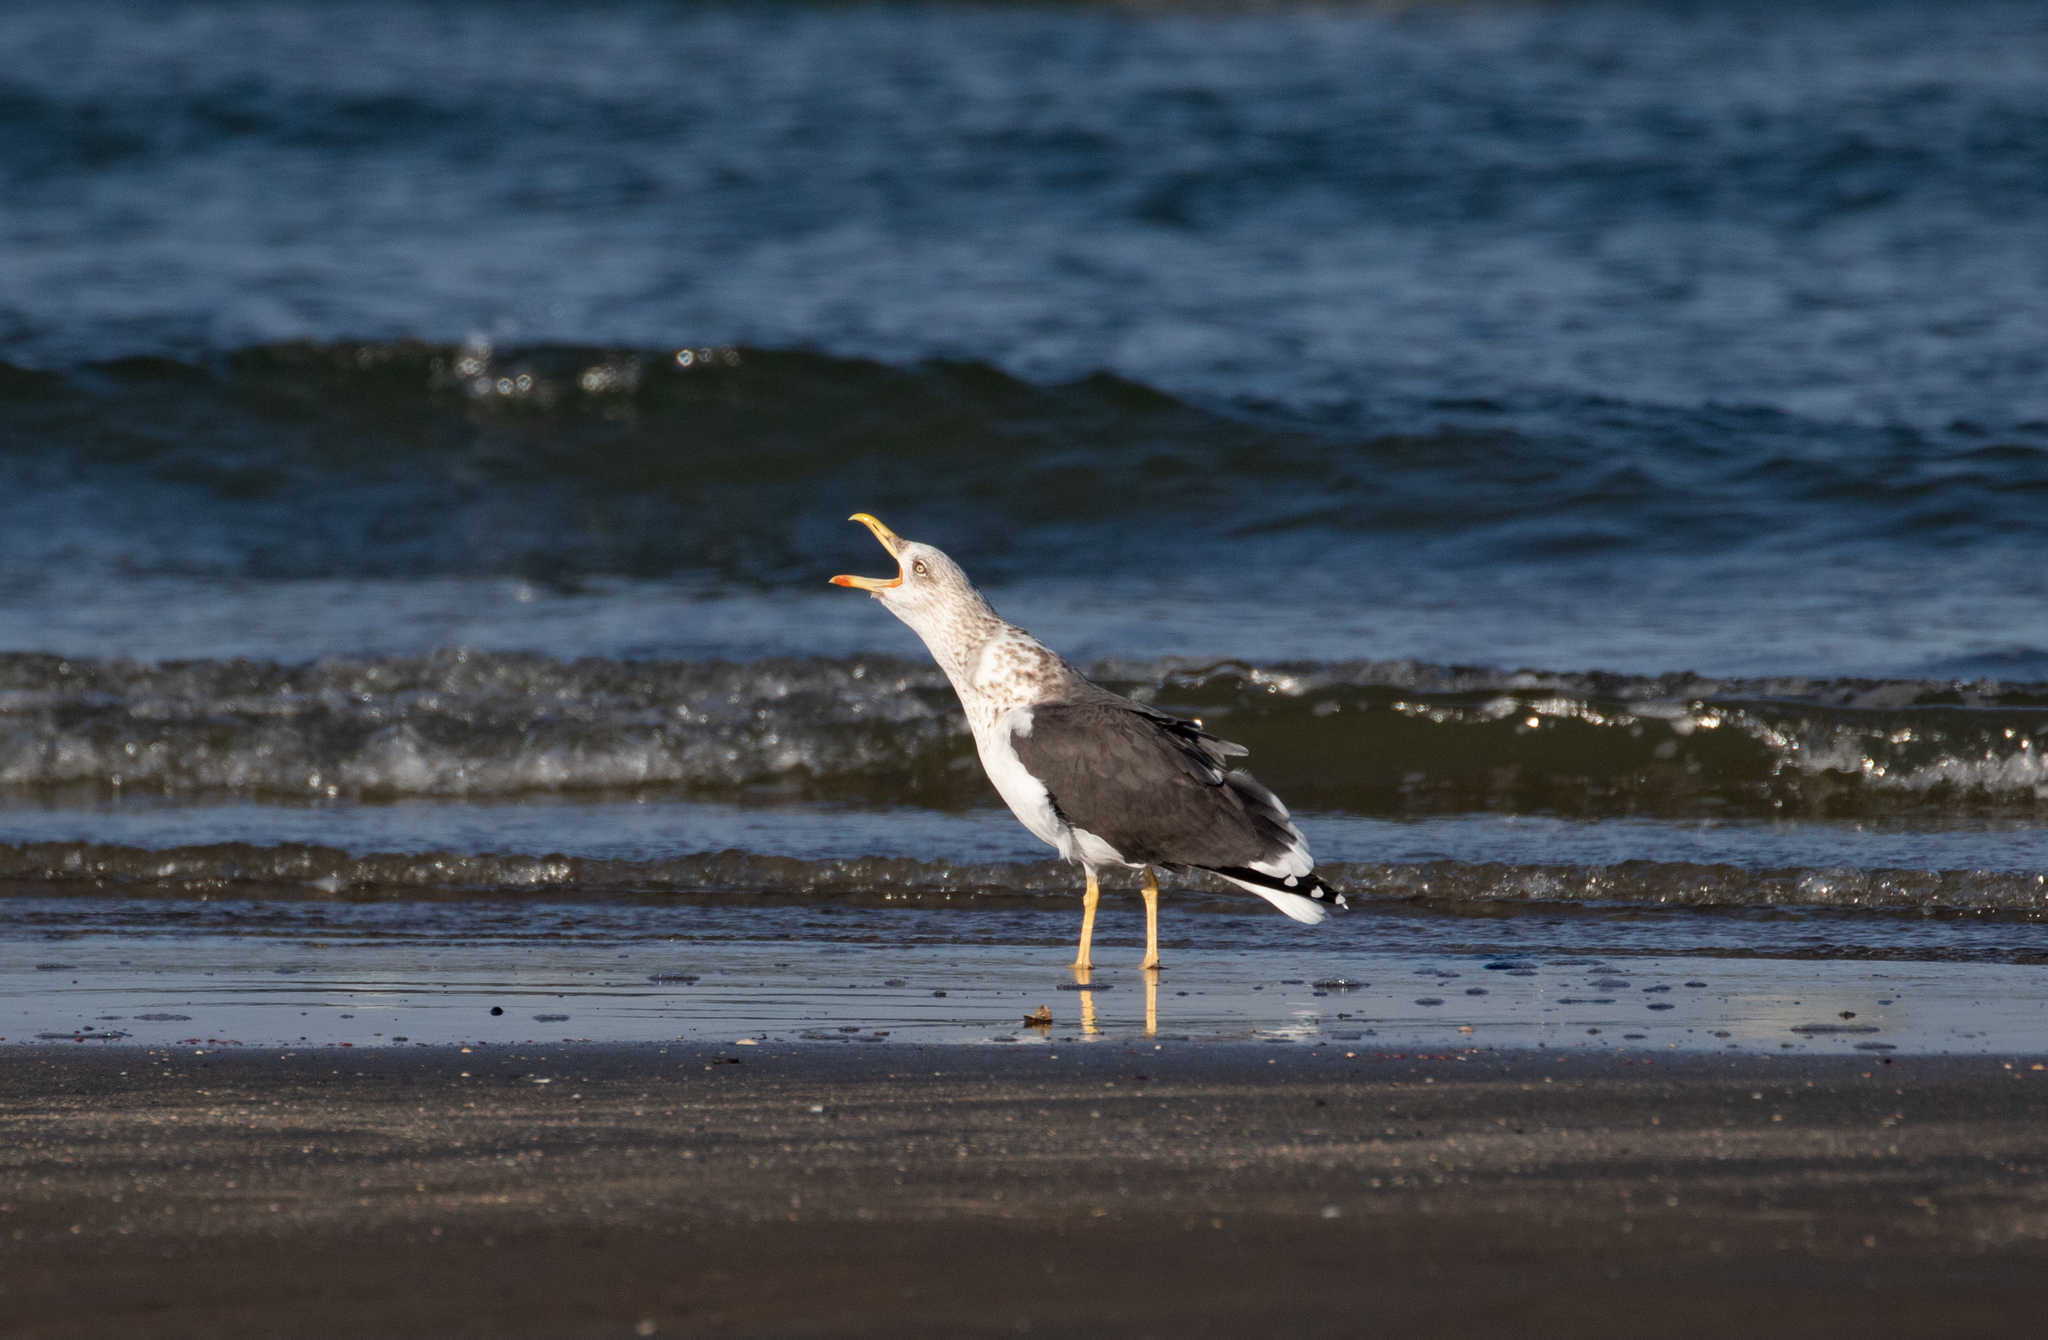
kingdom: Animalia
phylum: Chordata
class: Aves
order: Charadriiformes
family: Laridae
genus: Larus
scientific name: Larus fuscus
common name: Lesser black-backed gull
